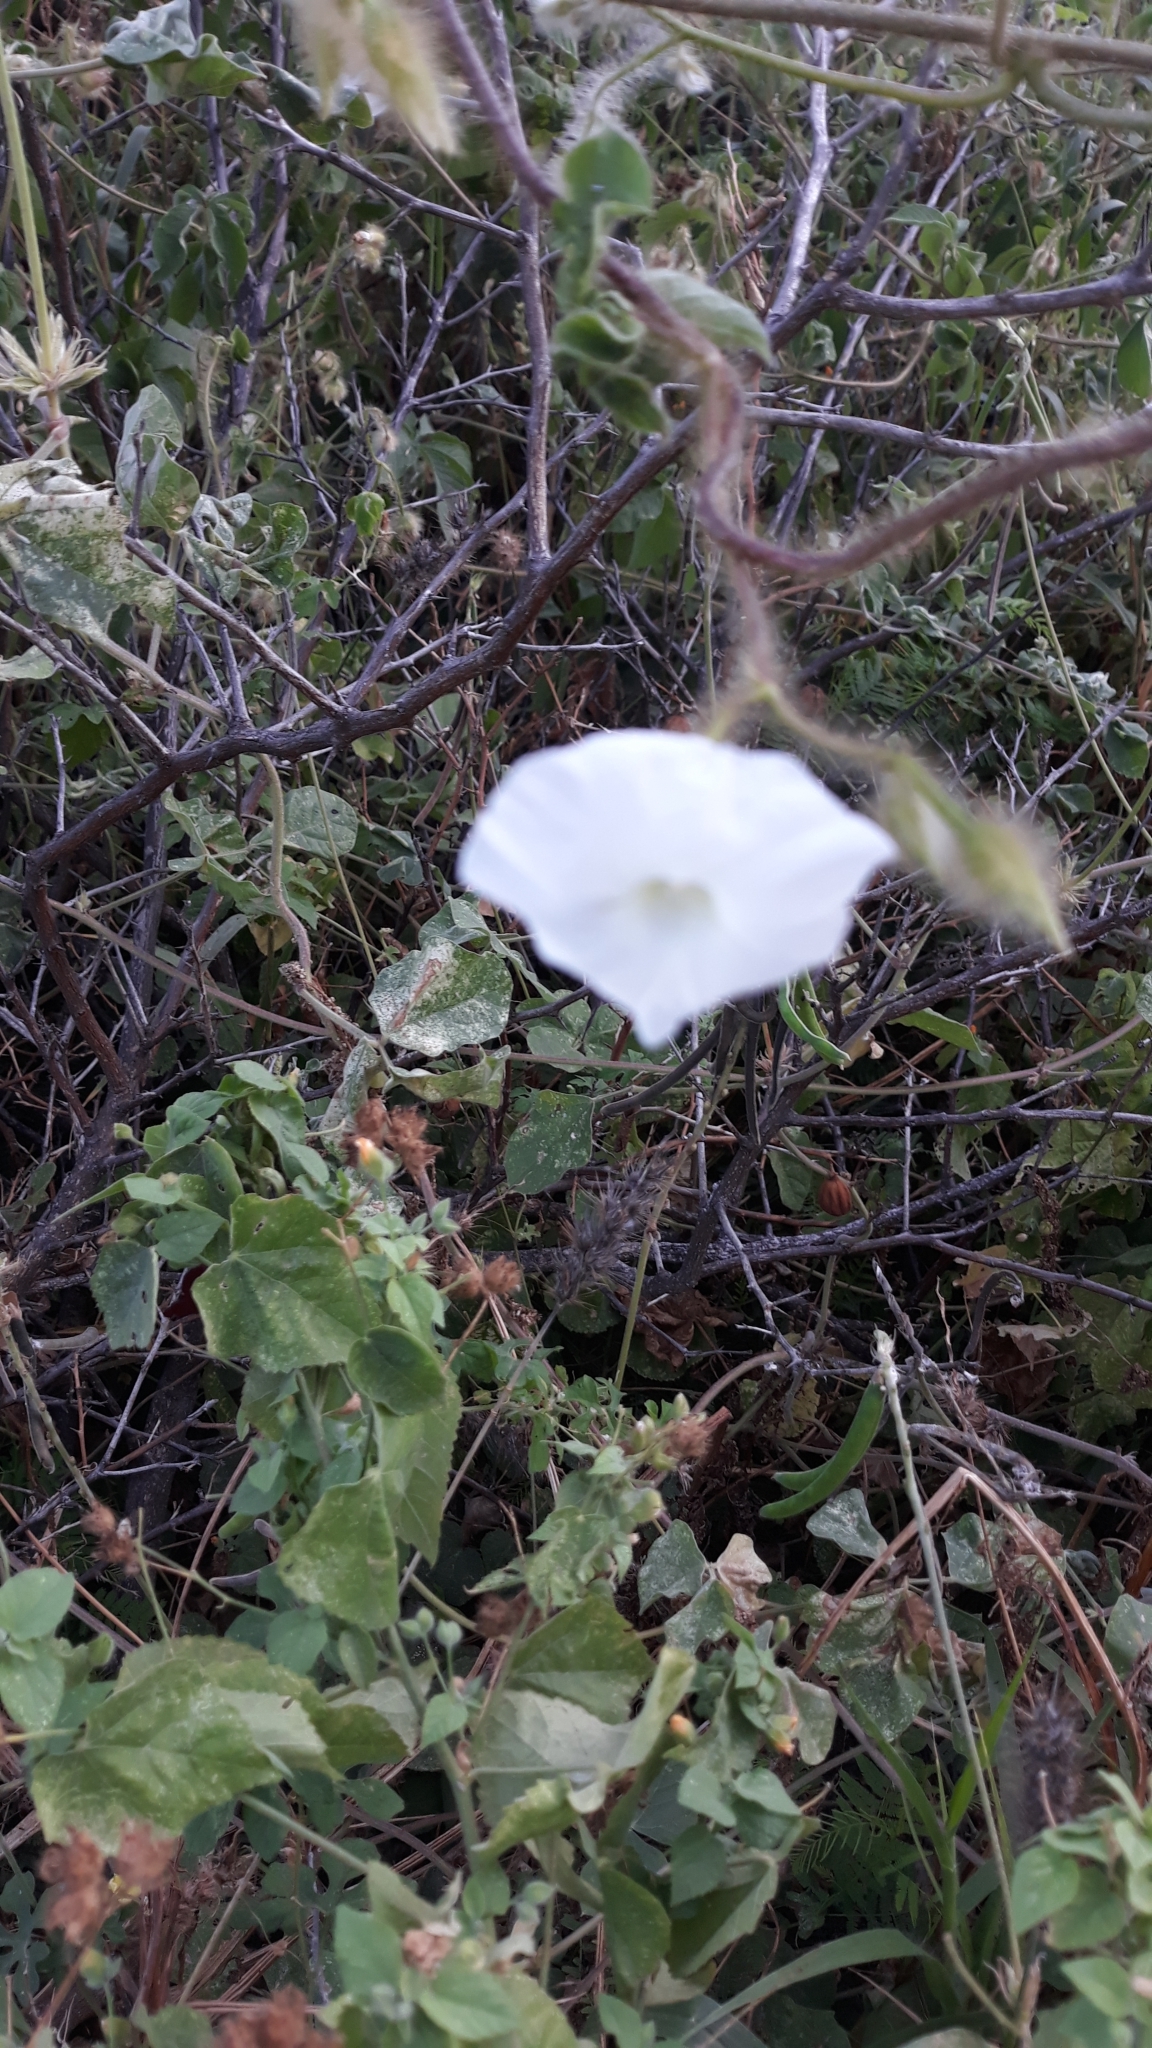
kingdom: Plantae
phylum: Tracheophyta
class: Magnoliopsida
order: Solanales
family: Convolvulaceae
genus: Distimake
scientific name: Distimake aegyptius
